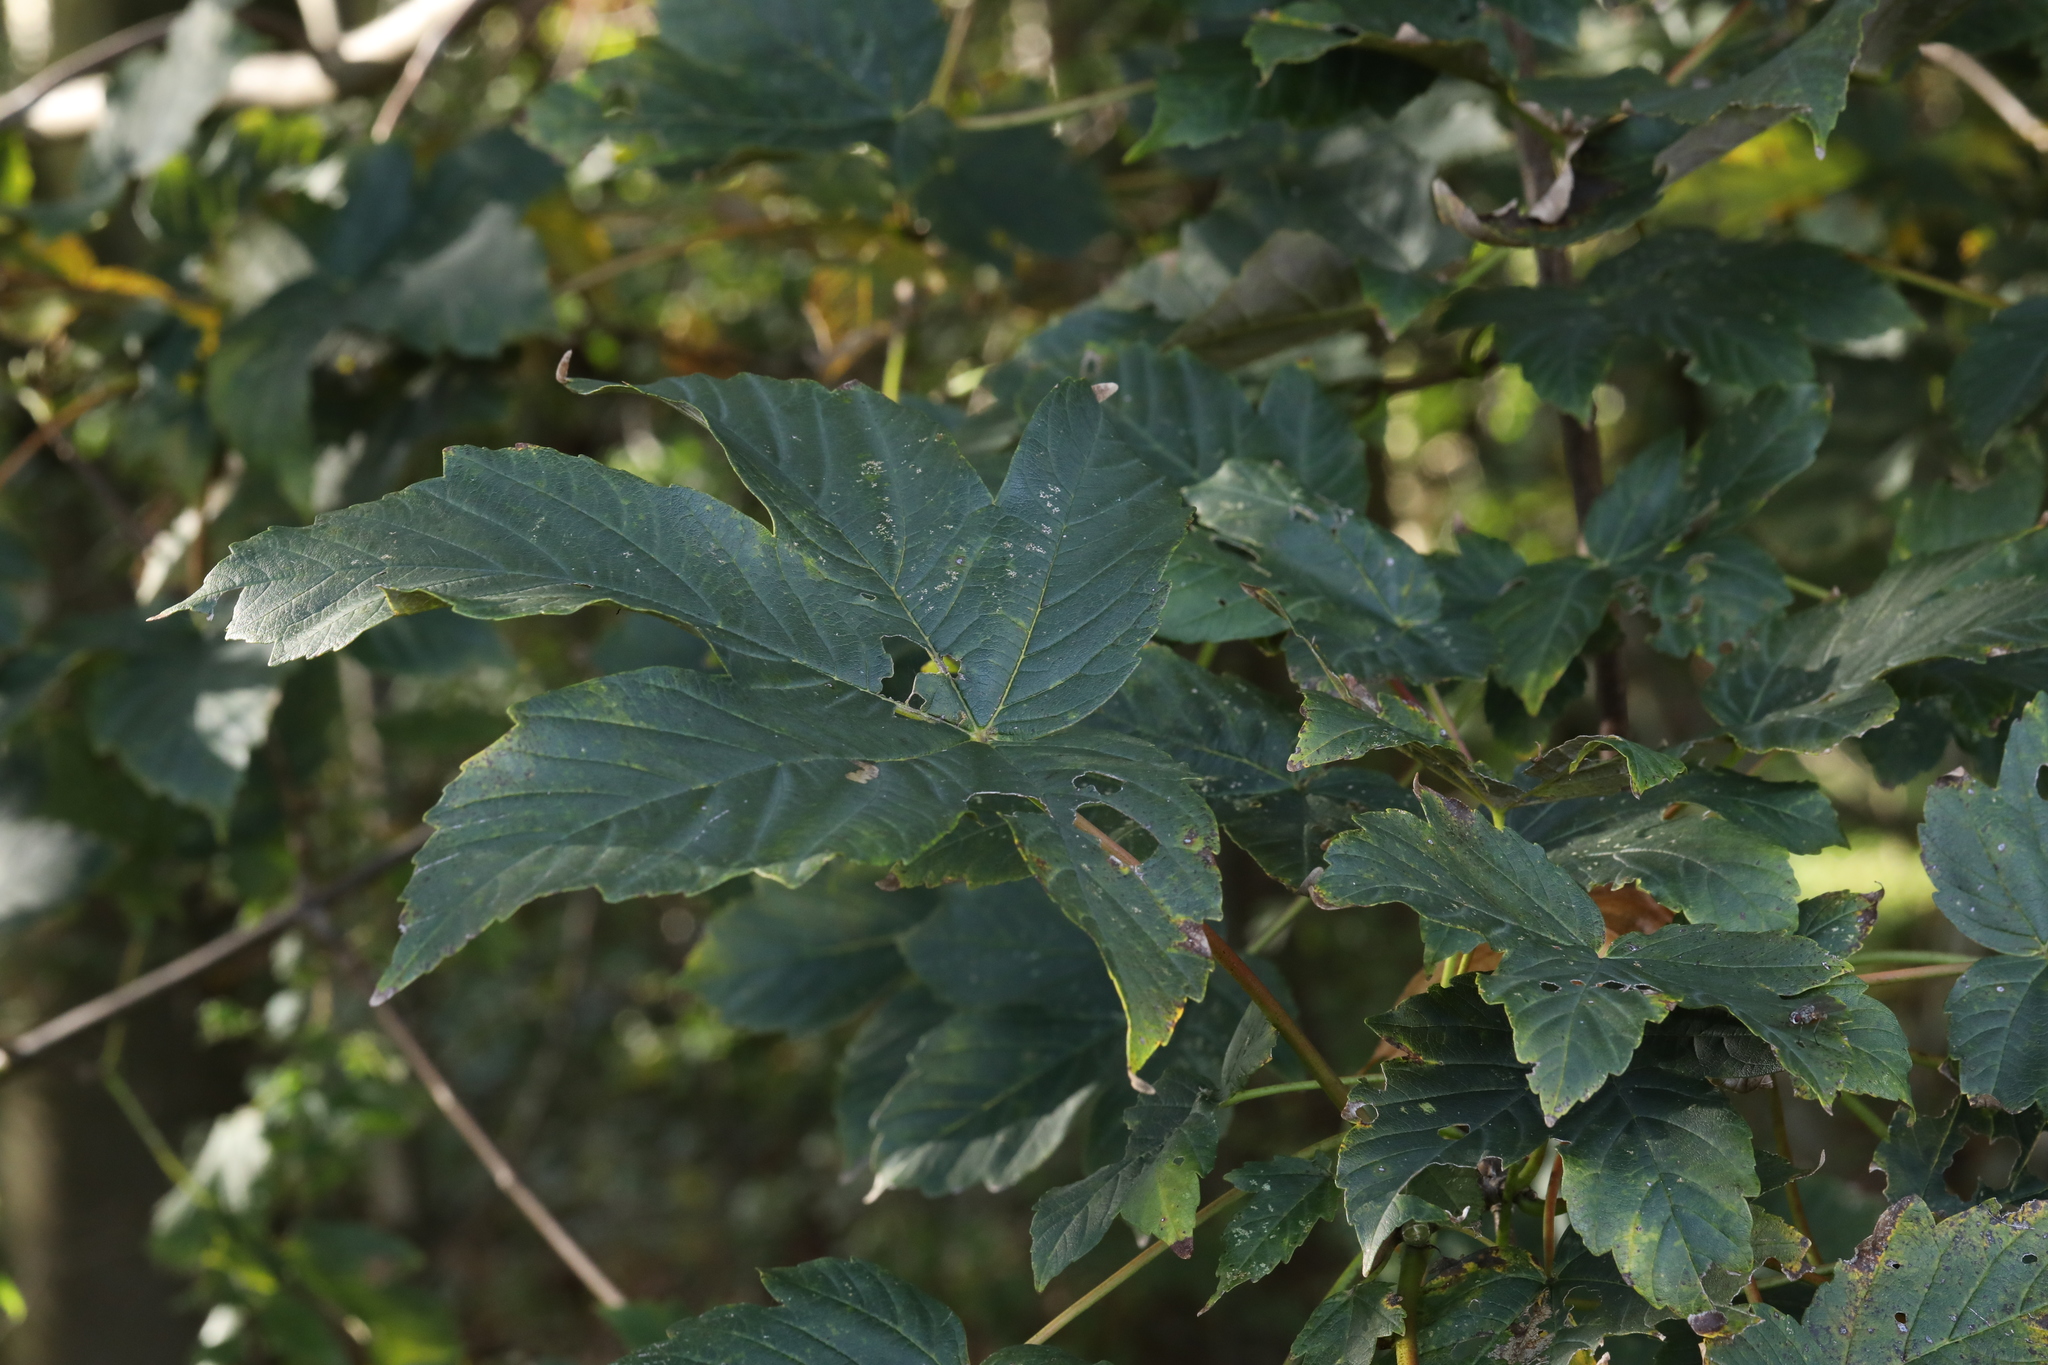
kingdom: Plantae
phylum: Tracheophyta
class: Magnoliopsida
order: Sapindales
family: Sapindaceae
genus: Acer
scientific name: Acer pseudoplatanus
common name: Sycamore
